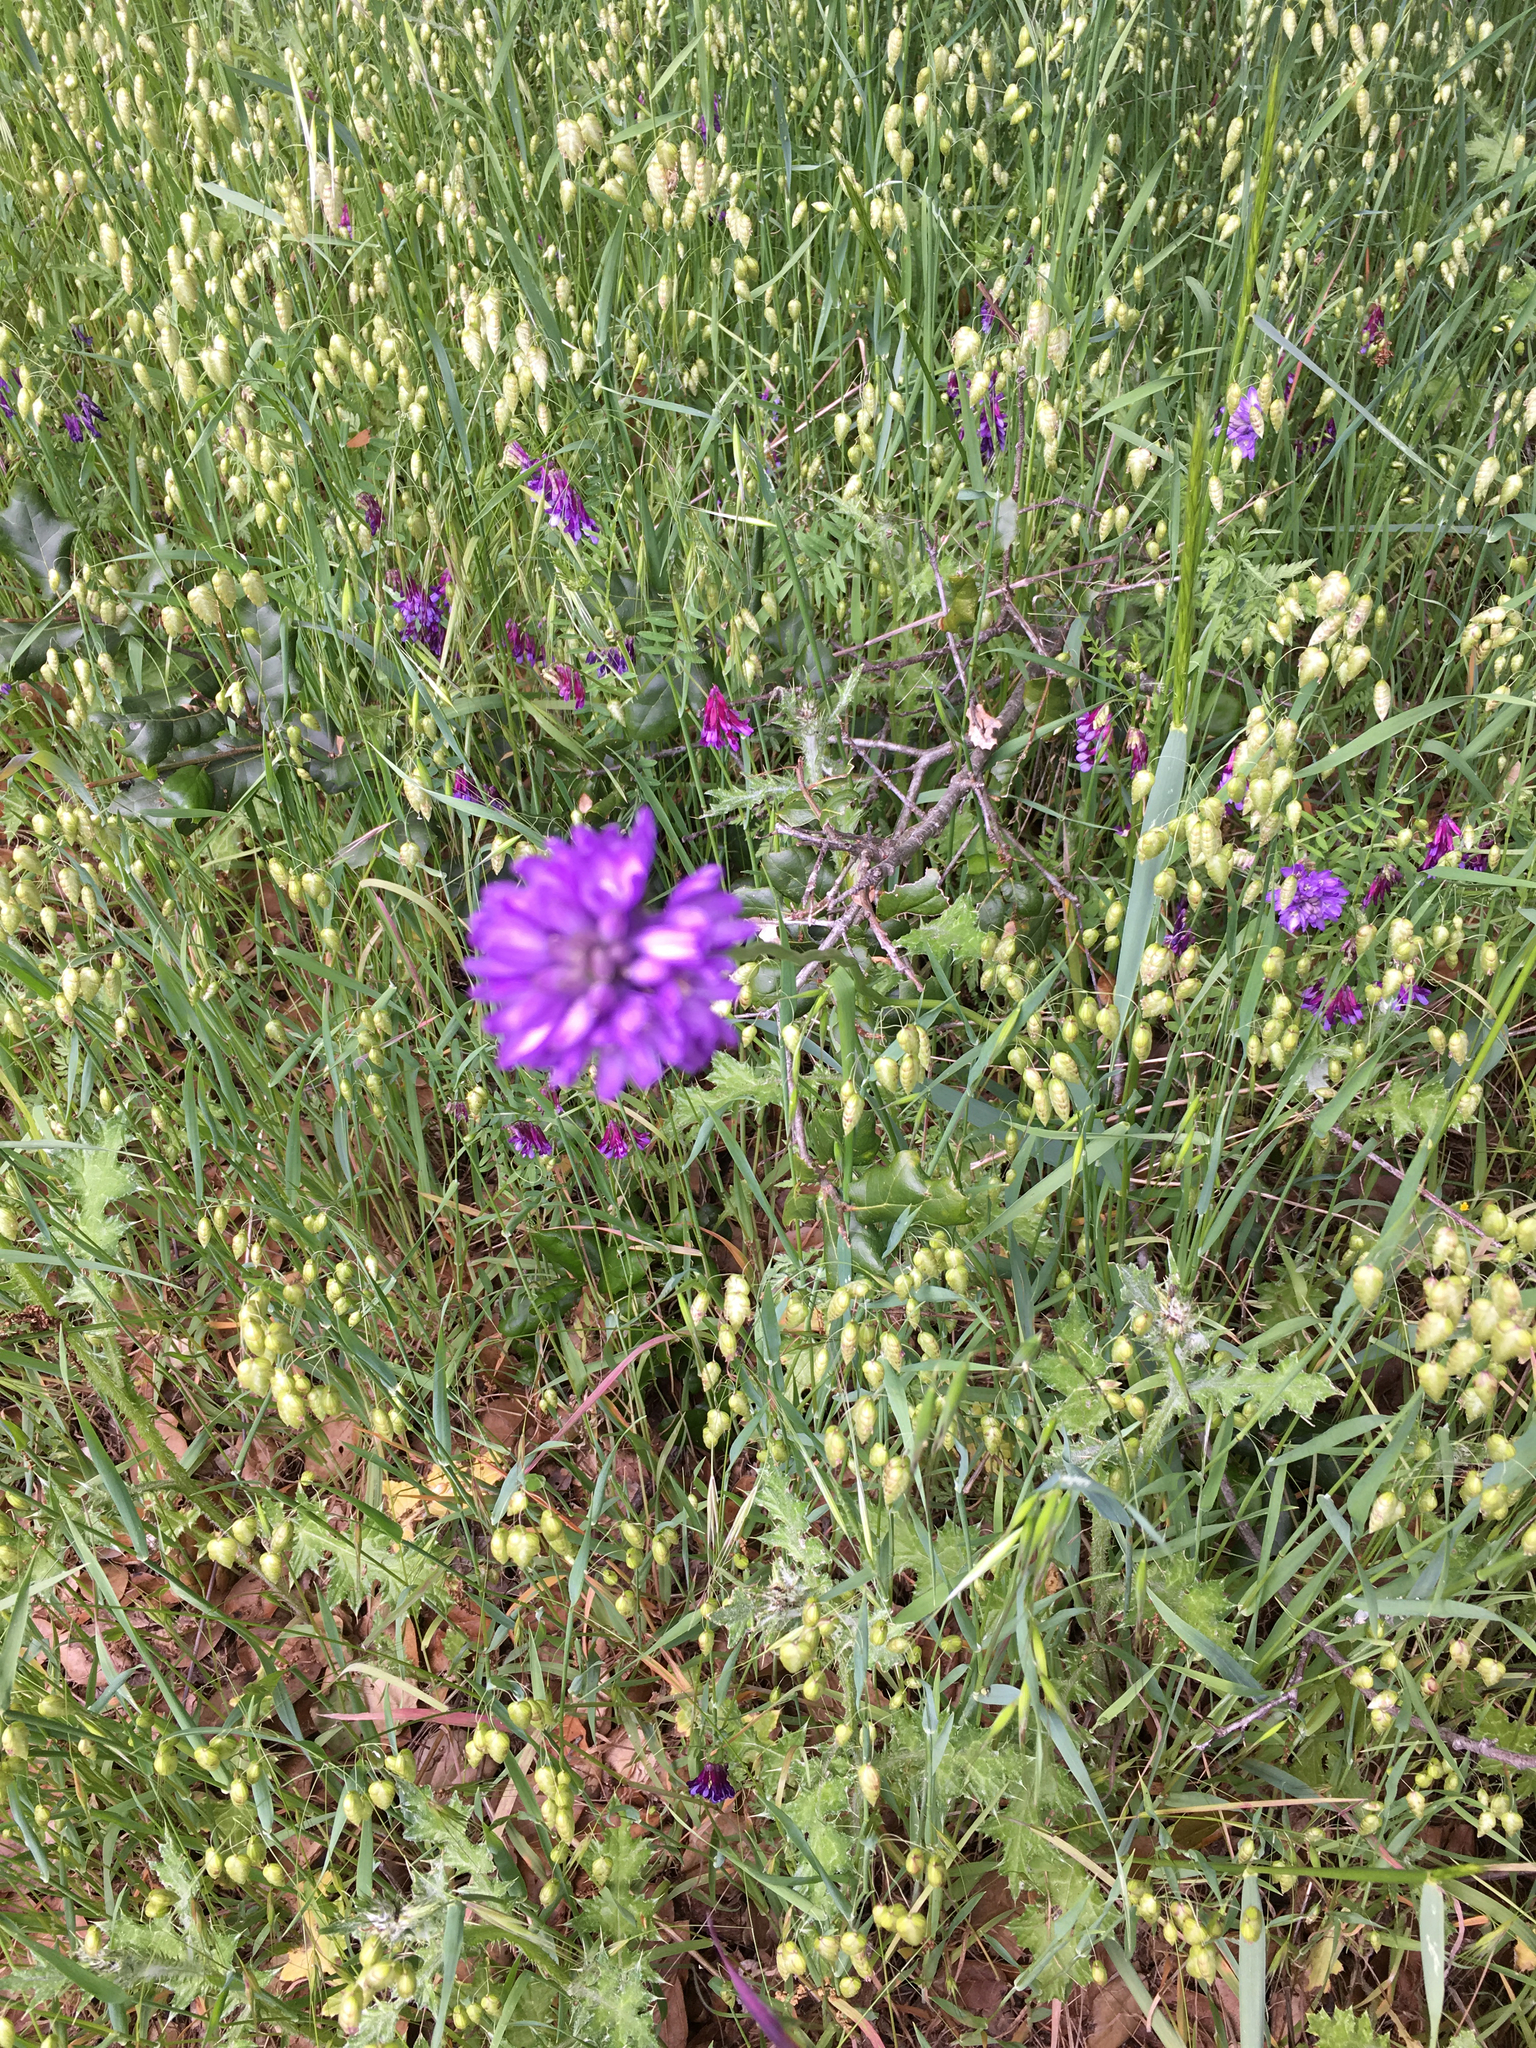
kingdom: Plantae
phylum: Tracheophyta
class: Liliopsida
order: Asparagales
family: Asparagaceae
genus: Dichelostemma
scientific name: Dichelostemma congestum
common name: Fork-tooth ookow
